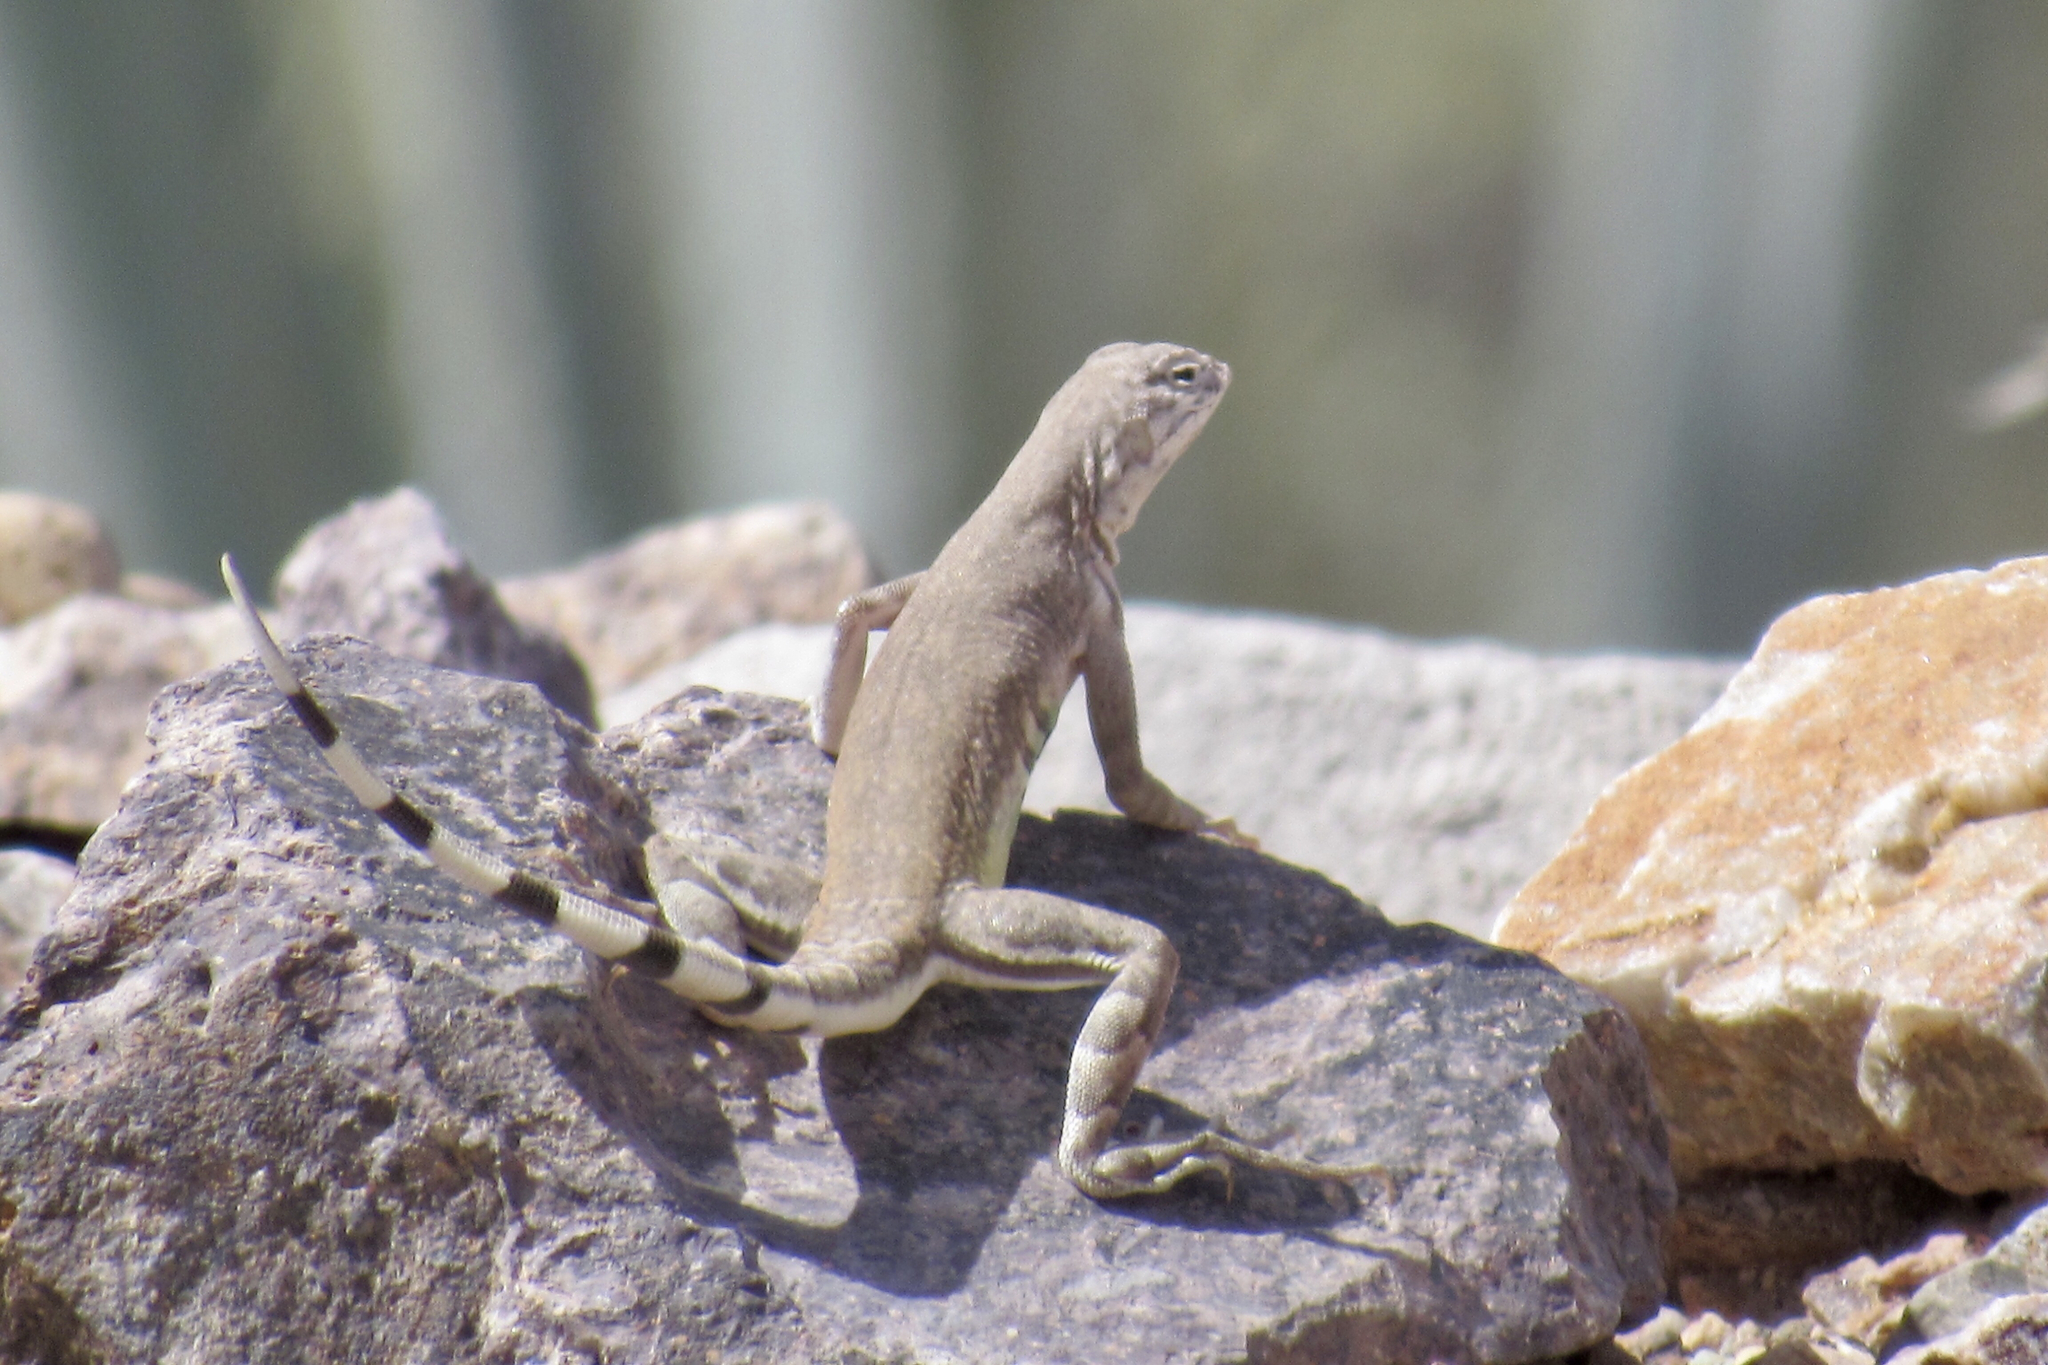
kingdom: Animalia
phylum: Chordata
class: Squamata
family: Phrynosomatidae
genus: Callisaurus
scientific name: Callisaurus draconoides
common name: Zebra-tailed lizard
